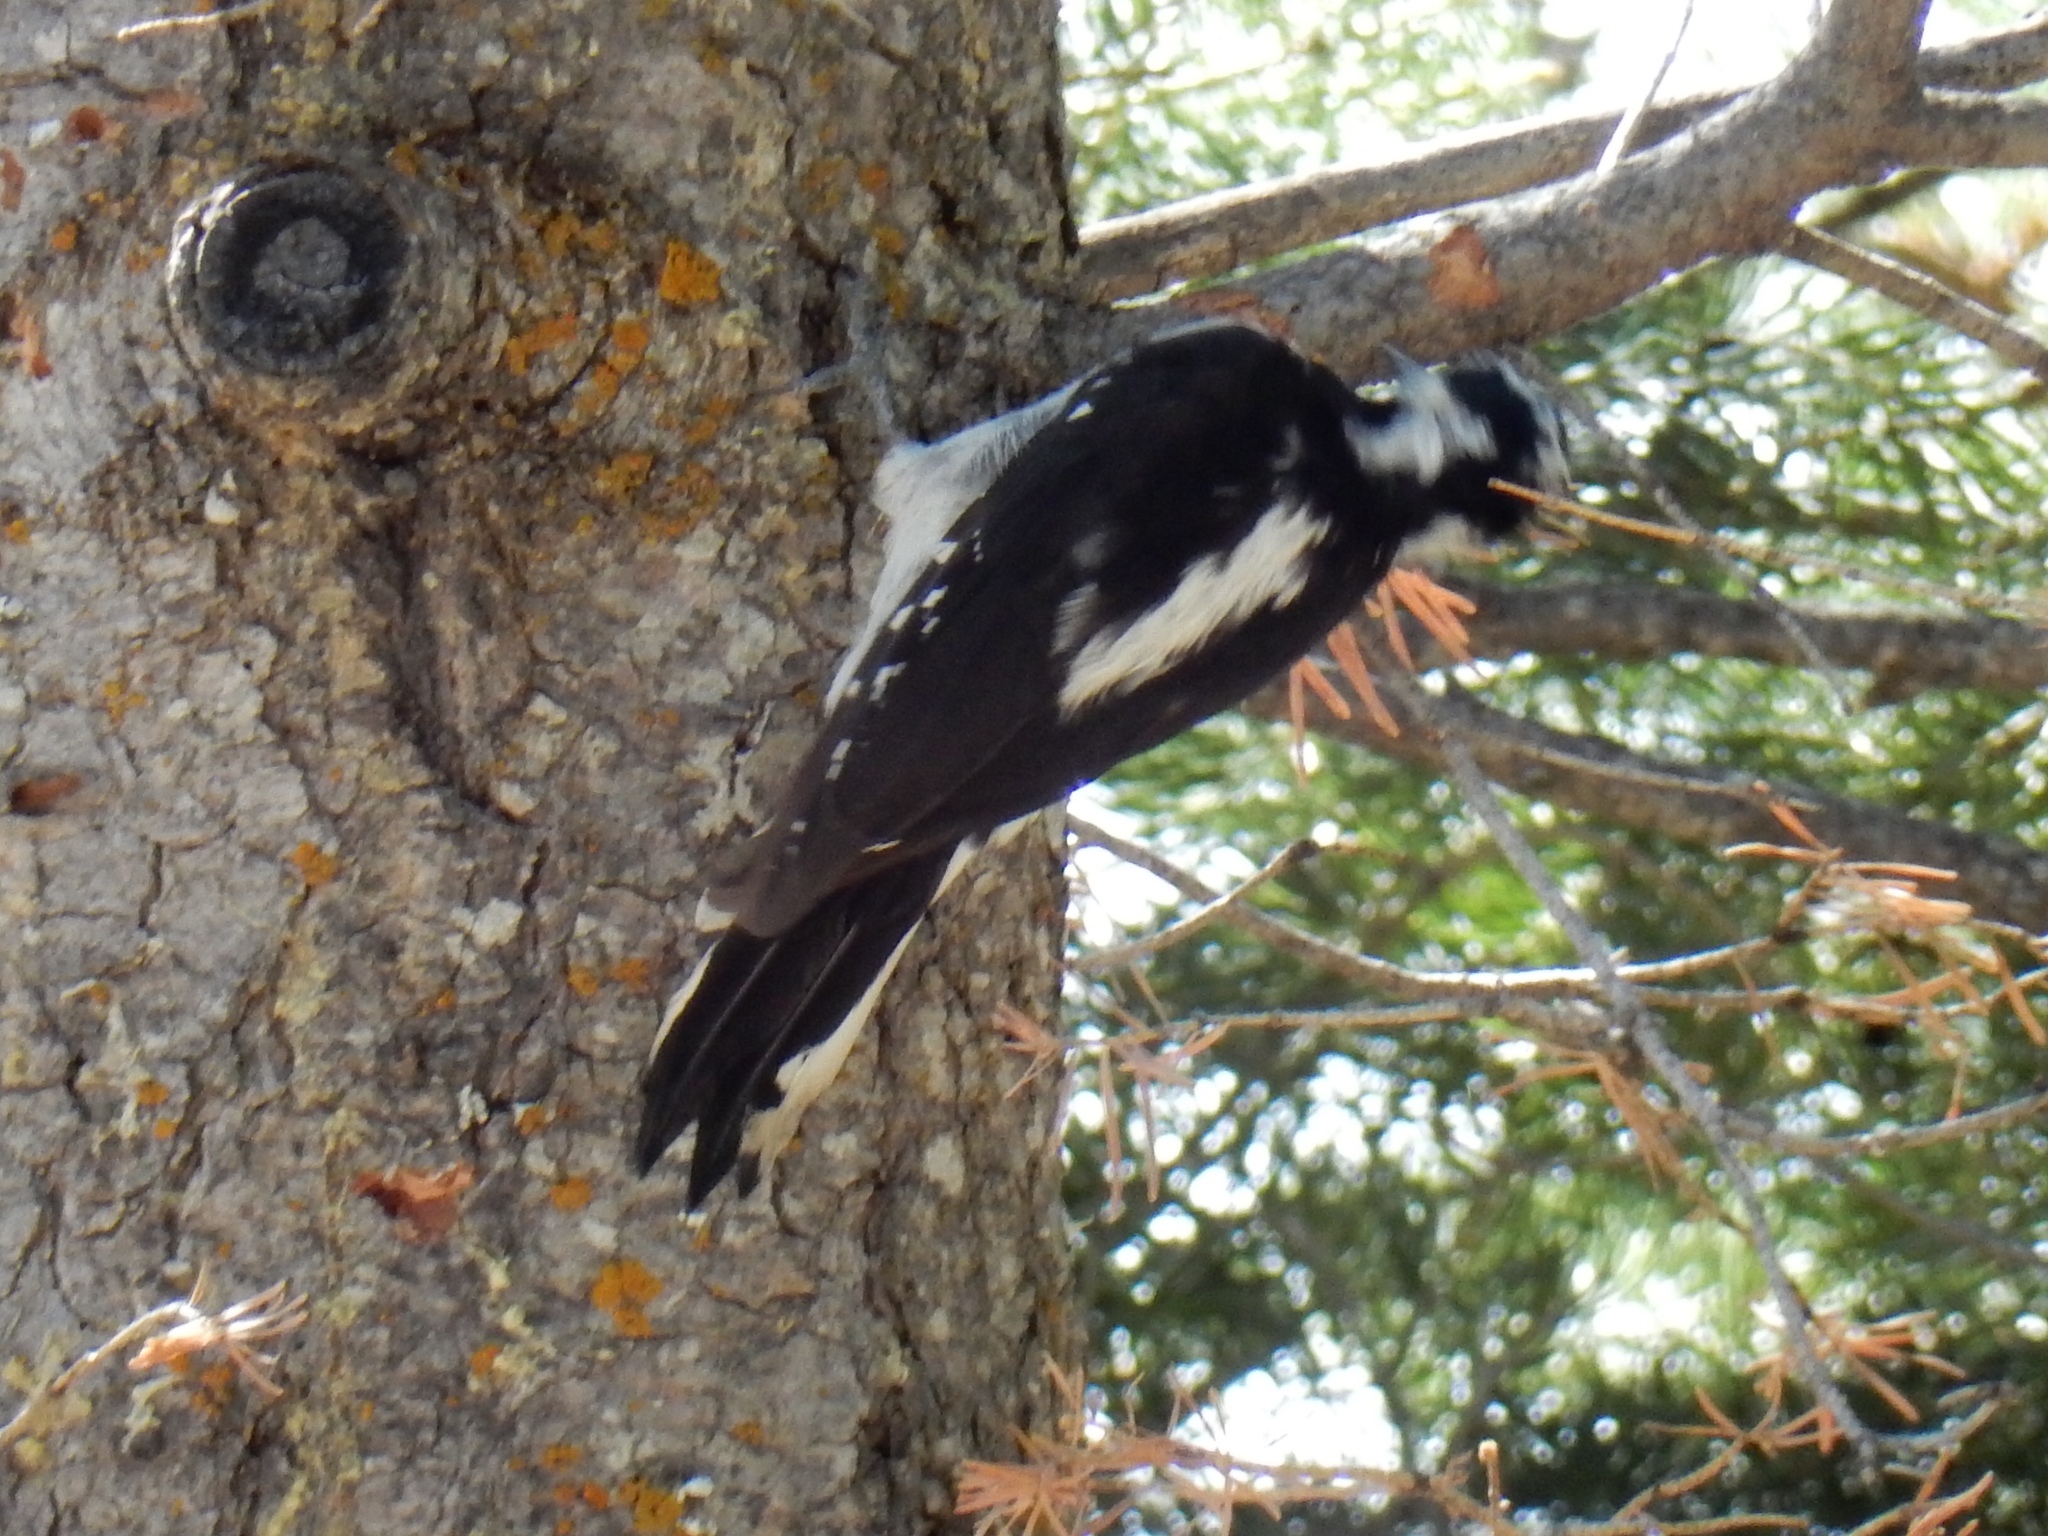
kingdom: Animalia
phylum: Chordata
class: Aves
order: Piciformes
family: Picidae
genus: Leuconotopicus
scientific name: Leuconotopicus villosus
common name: Hairy woodpecker
